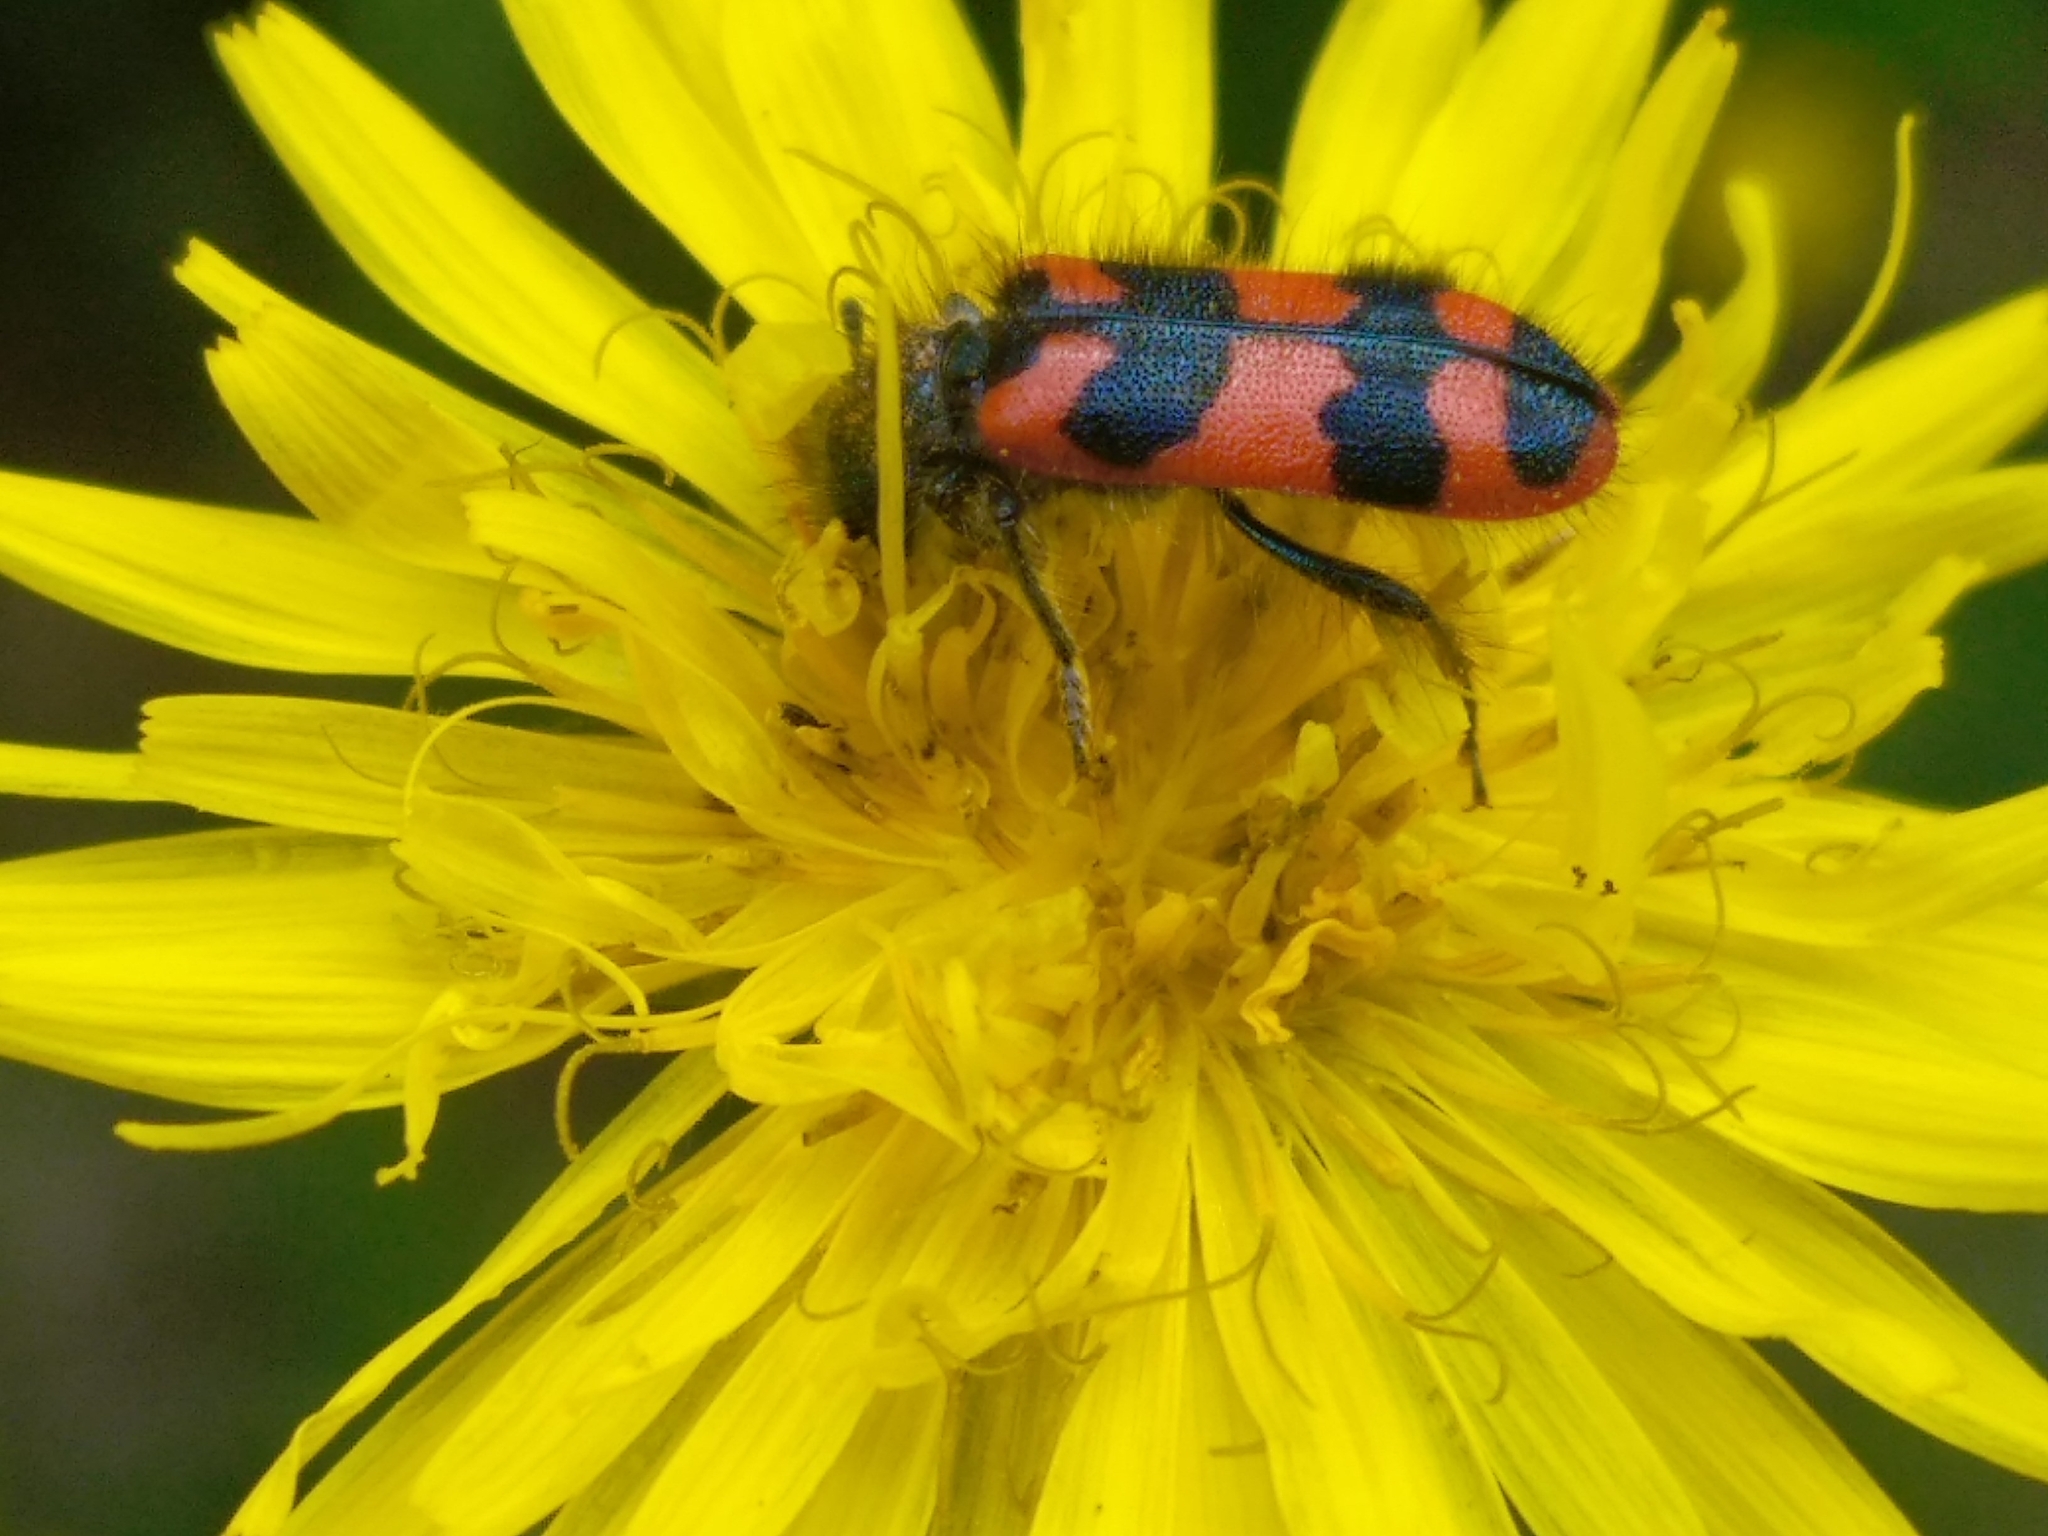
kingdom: Animalia
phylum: Arthropoda
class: Insecta
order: Coleoptera
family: Cleridae
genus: Trichodes
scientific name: Trichodes alvearius
